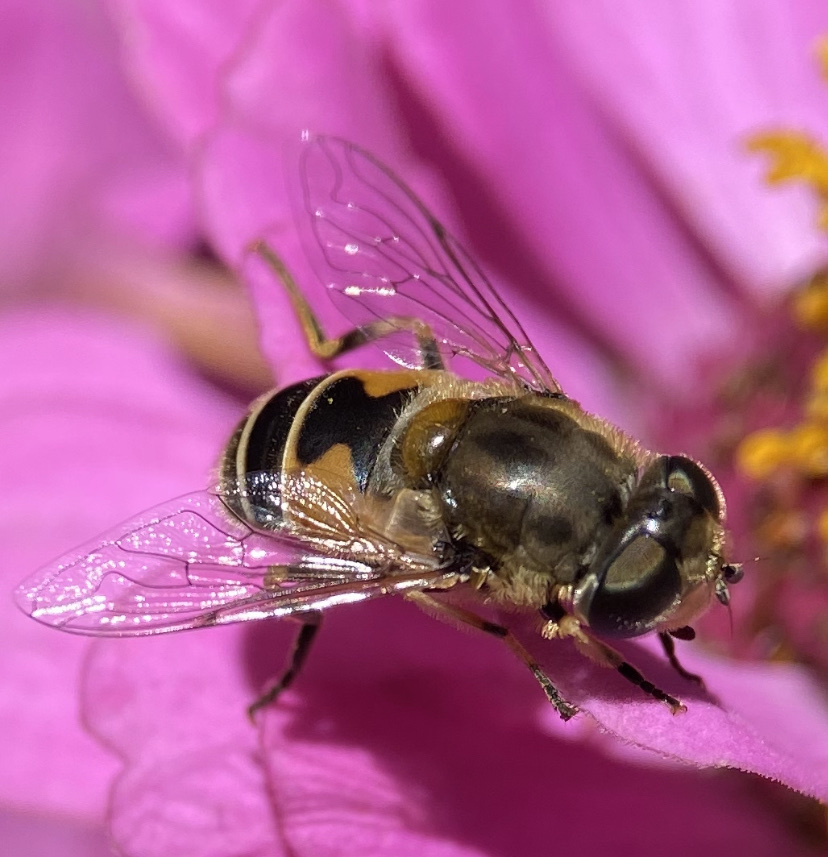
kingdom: Animalia
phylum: Arthropoda
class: Insecta
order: Diptera
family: Syrphidae
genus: Eristalis
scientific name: Eristalis arbustorum
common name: Hover fly
